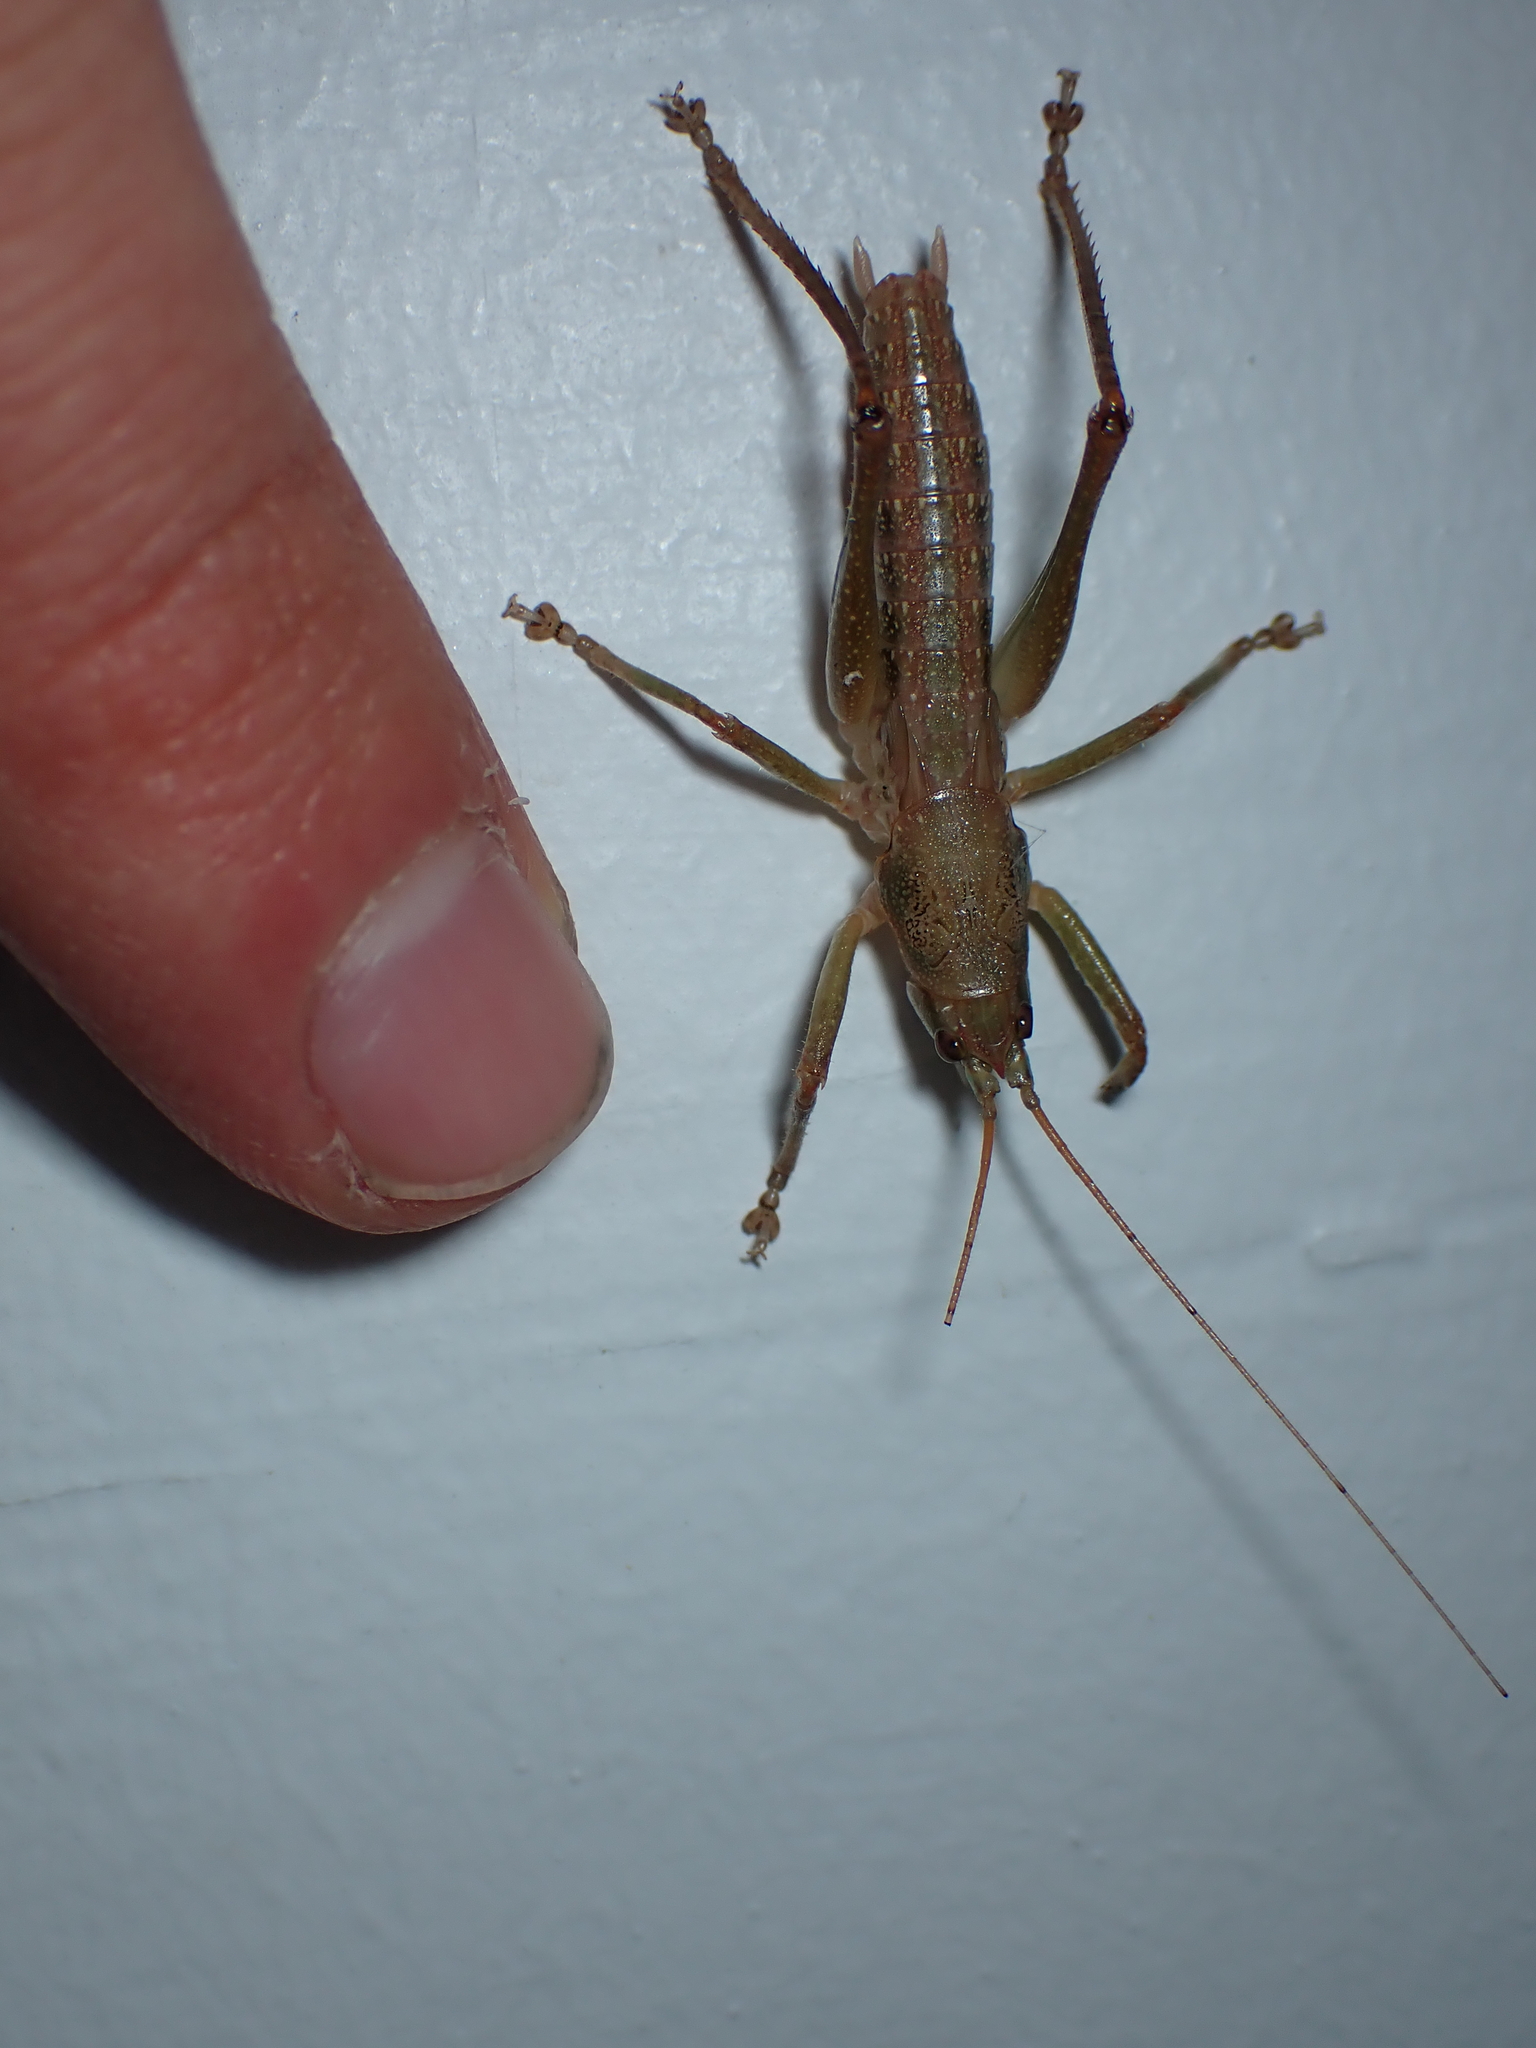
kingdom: Animalia
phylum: Arthropoda
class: Insecta
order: Orthoptera
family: Tettigoniidae
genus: Austrosalomona
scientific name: Austrosalomona falcata
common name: Olive-green coastal katydid
